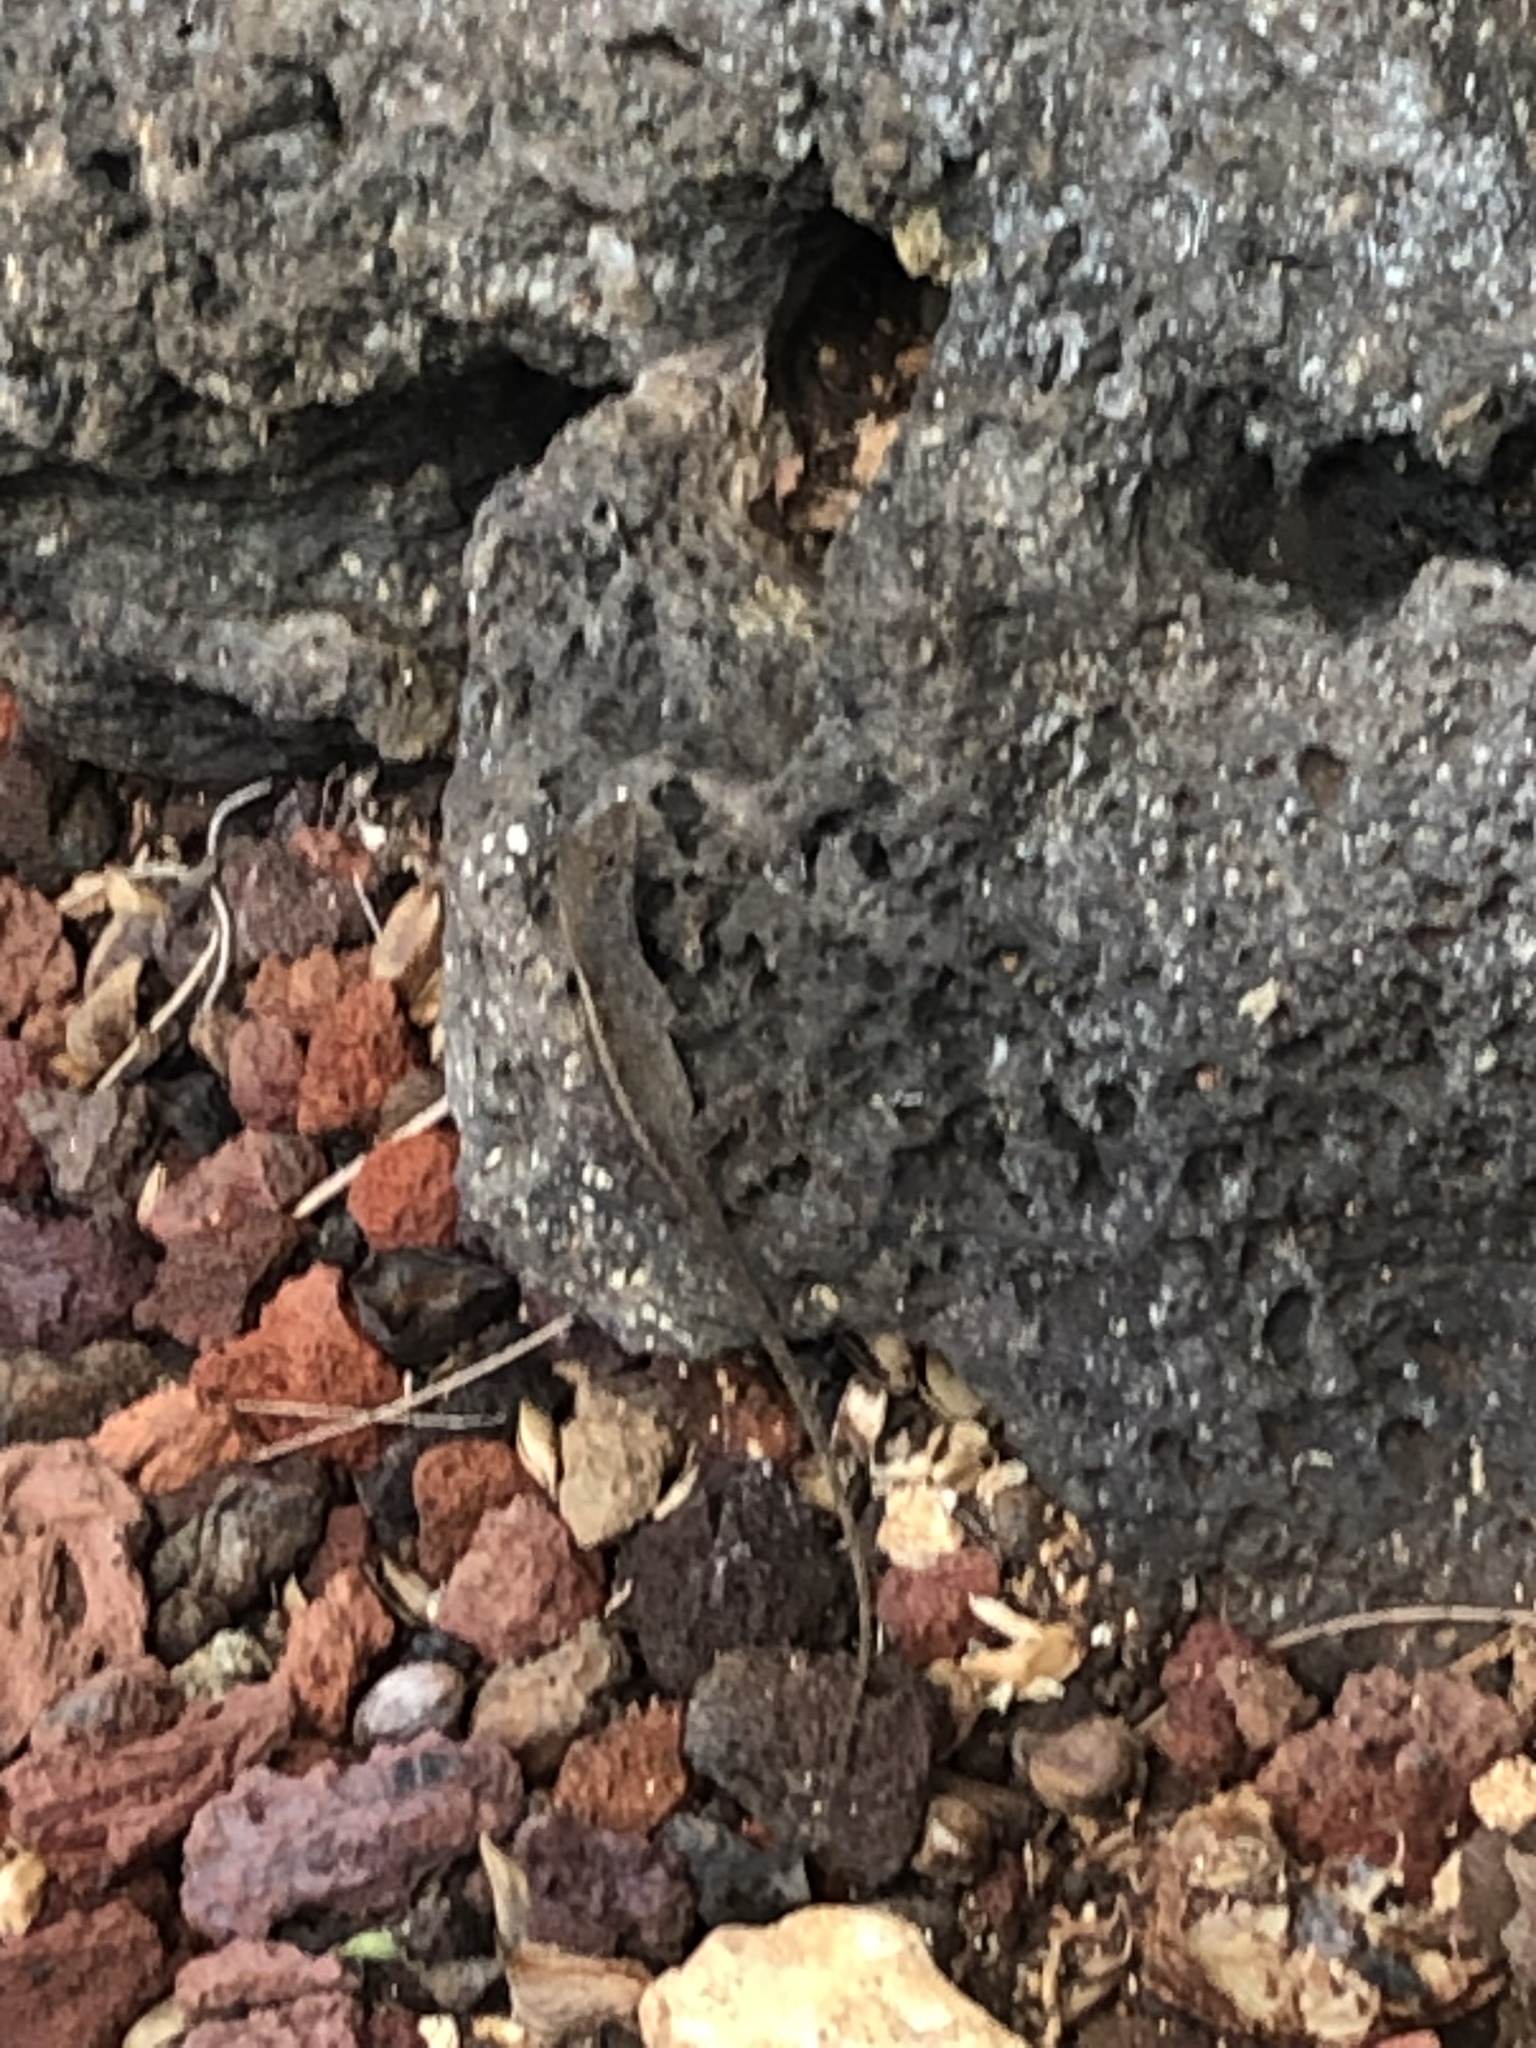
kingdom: Animalia
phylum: Chordata
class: Squamata
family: Dactyloidae
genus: Anolis
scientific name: Anolis sagrei
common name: Brown anole
